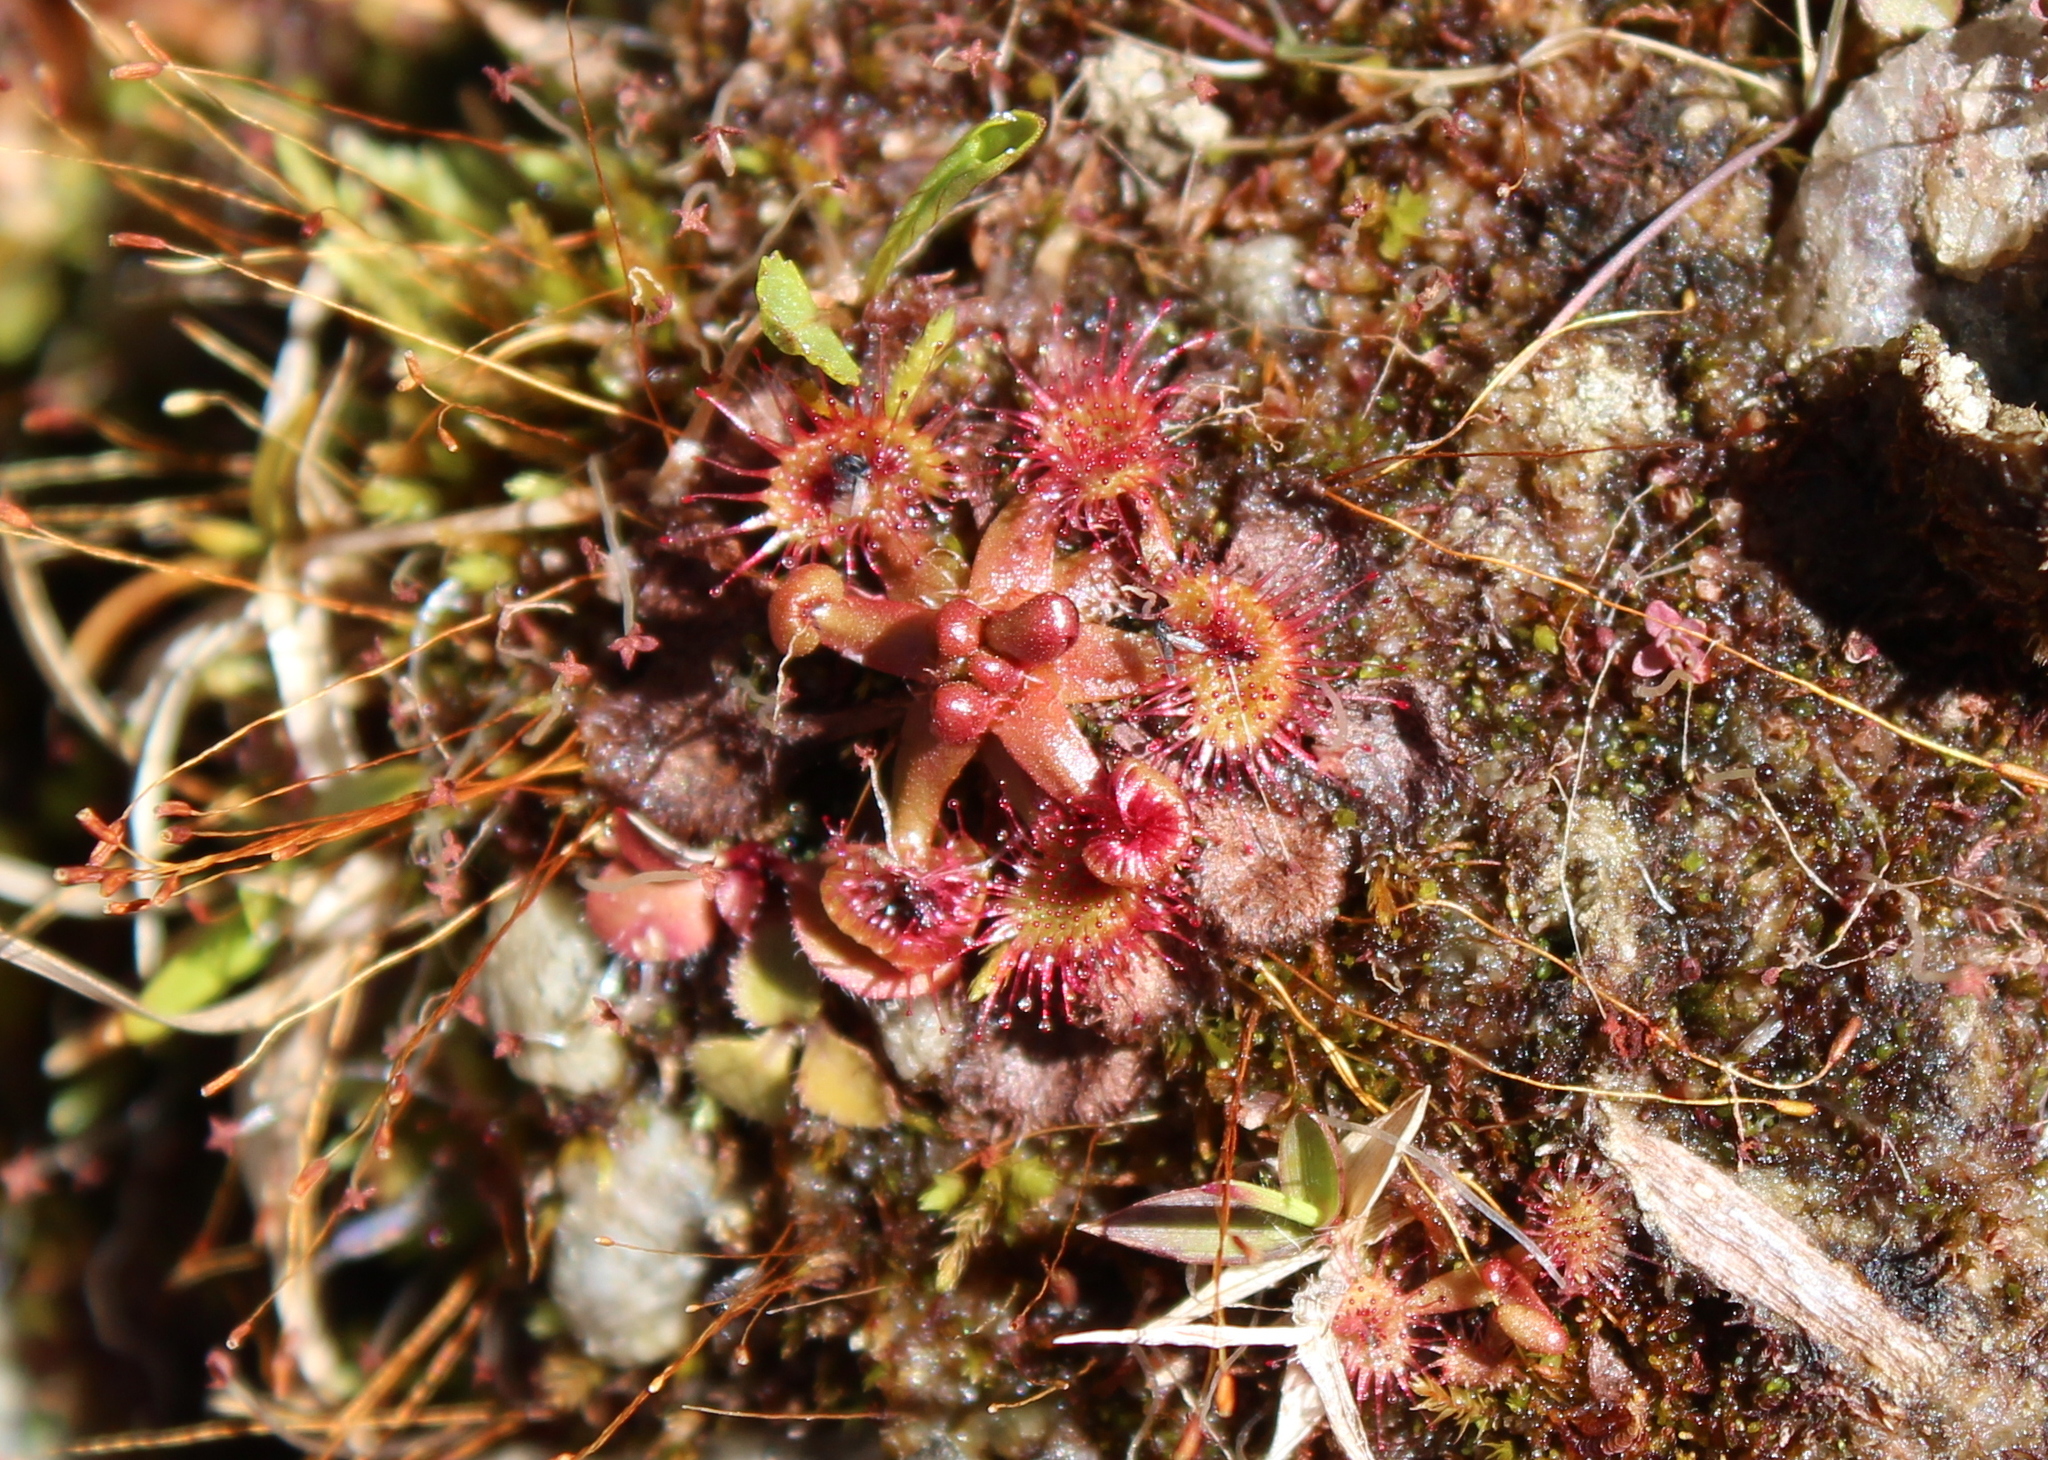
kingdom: Plantae
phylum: Tracheophyta
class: Magnoliopsida
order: Caryophyllales
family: Droseraceae
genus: Drosera
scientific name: Drosera rotundifolia
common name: Round-leaved sundew
